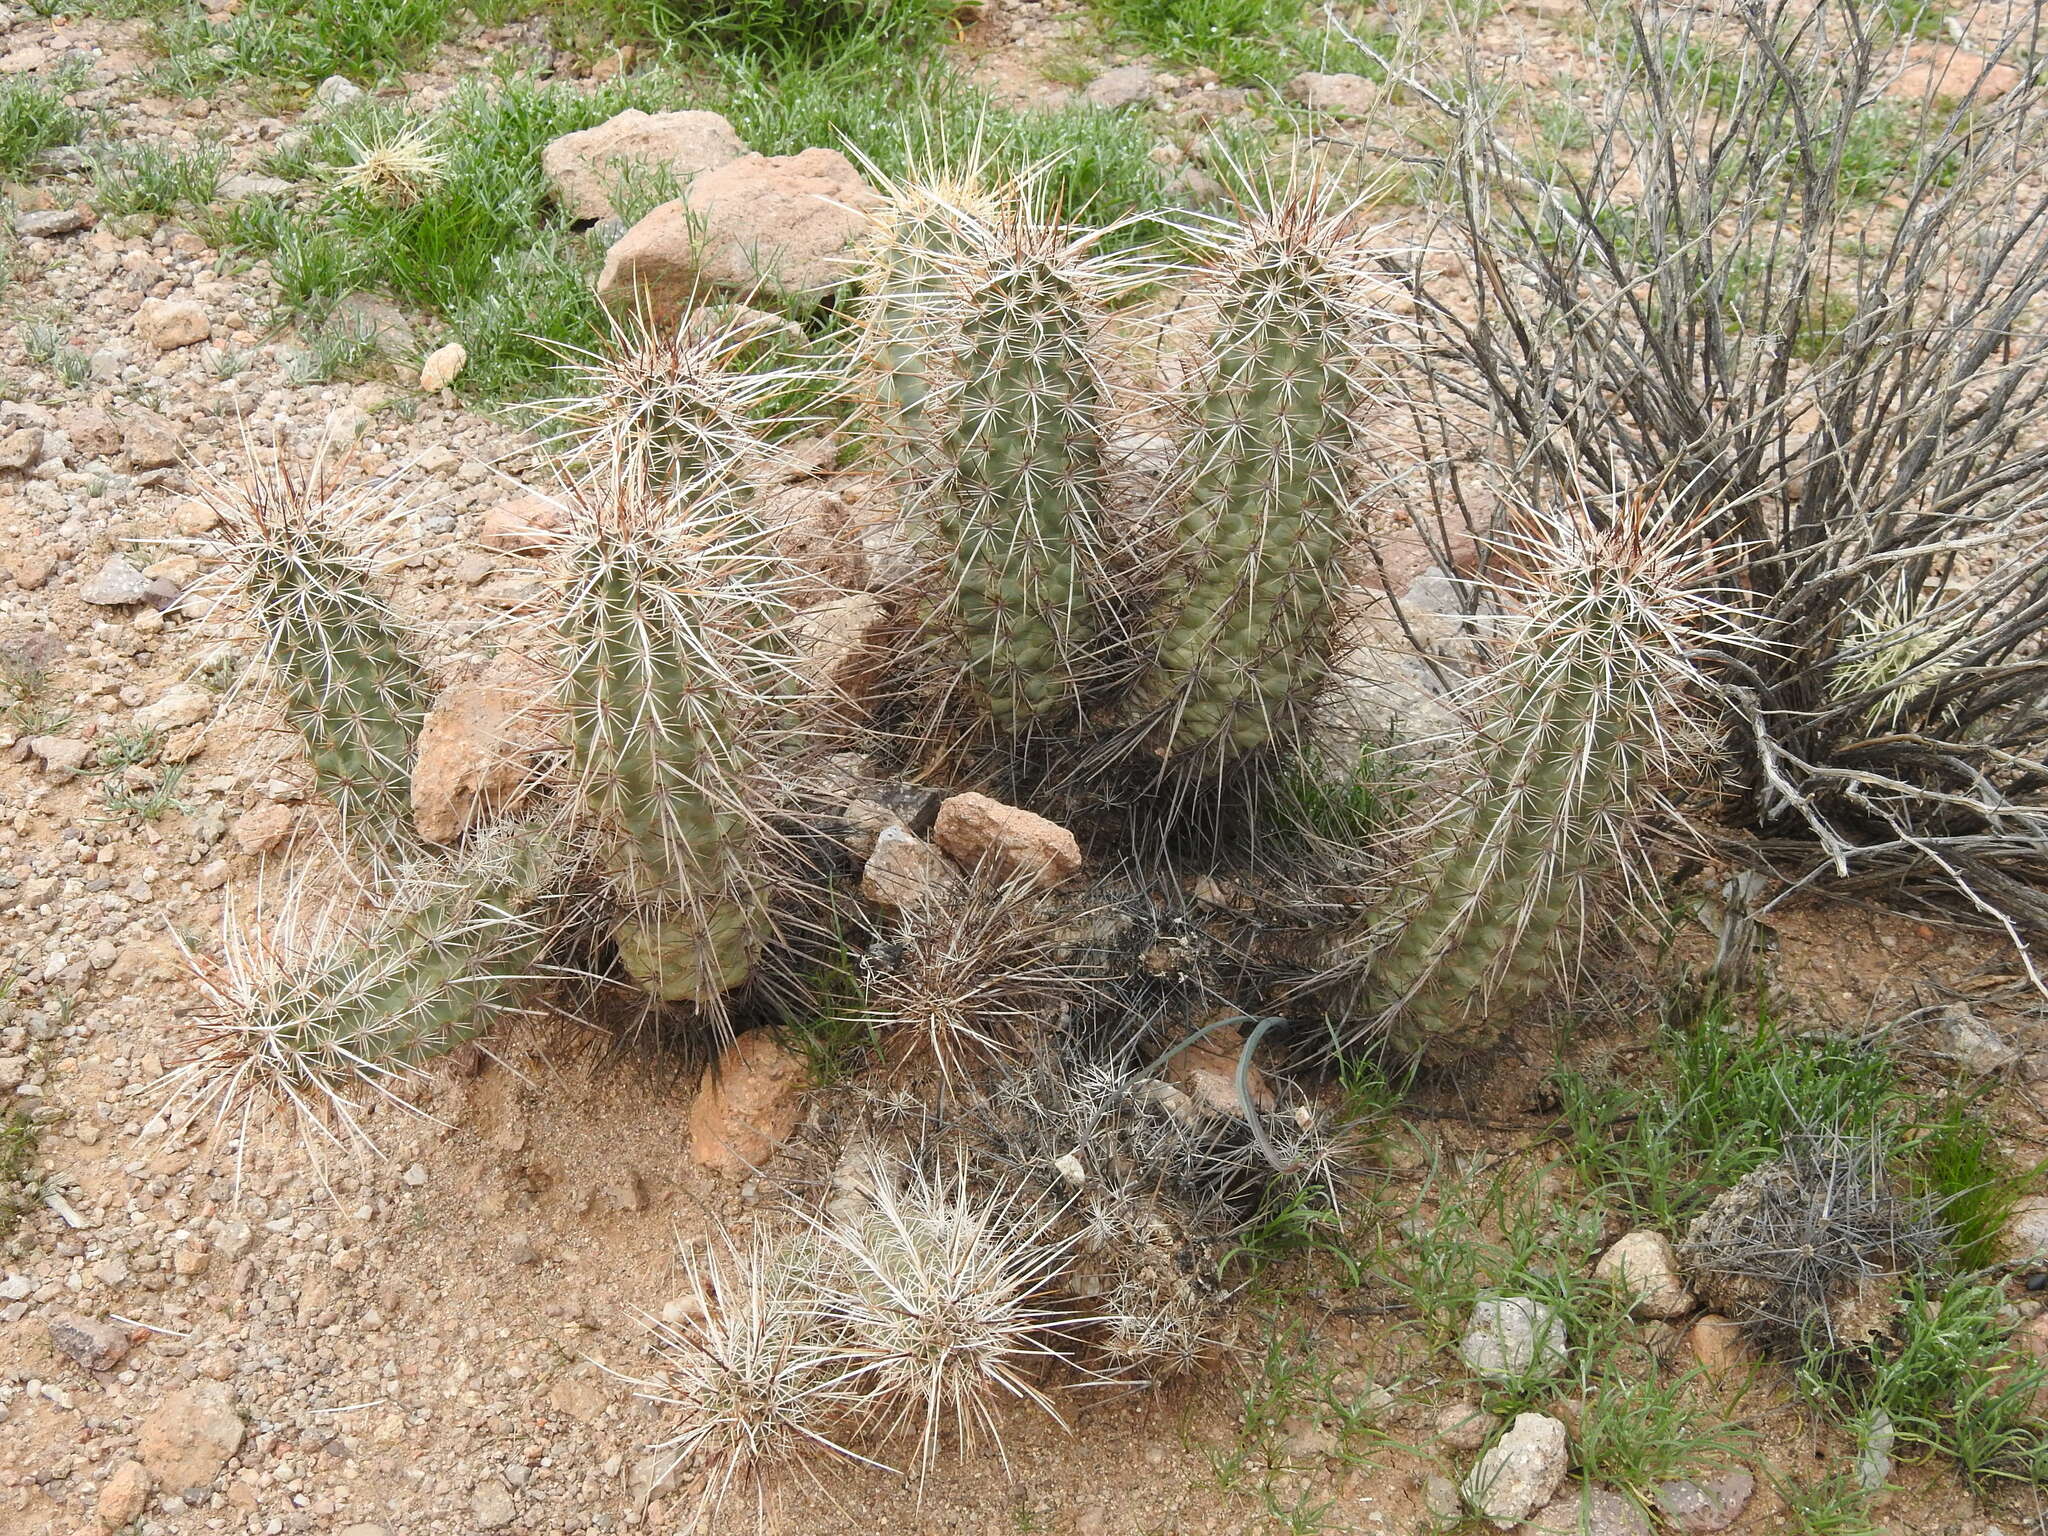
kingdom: Plantae
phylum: Tracheophyta
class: Magnoliopsida
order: Caryophyllales
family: Cactaceae
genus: Echinocereus
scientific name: Echinocereus engelmannii
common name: Engelmann's hedgehog cactus
